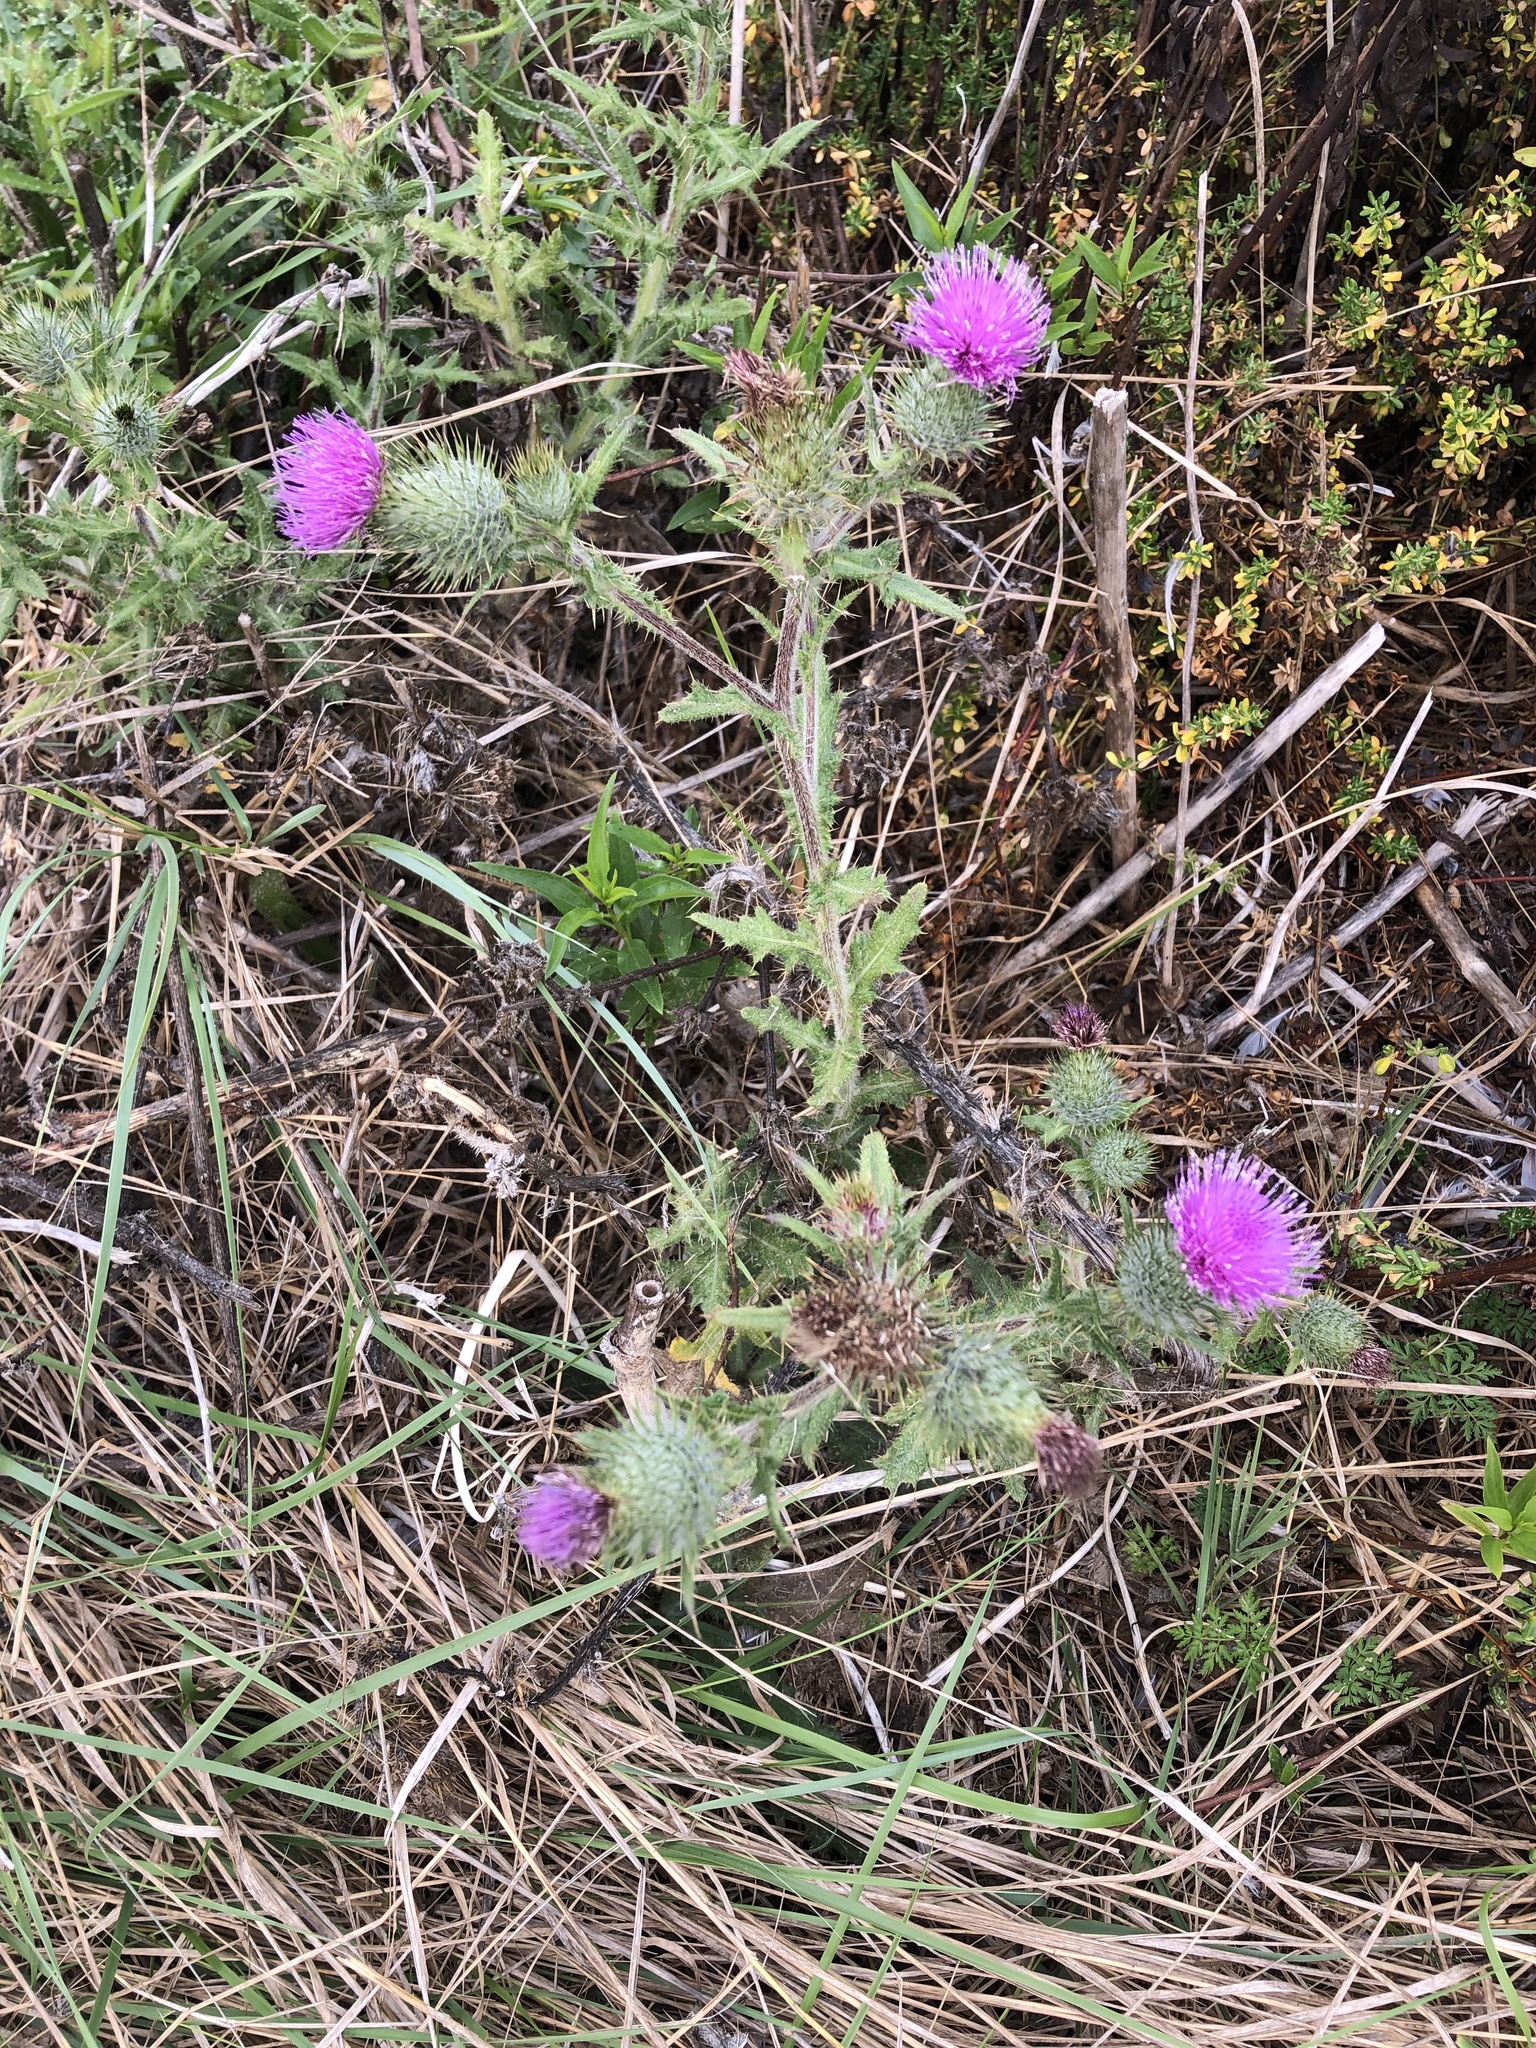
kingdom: Plantae
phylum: Tracheophyta
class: Magnoliopsida
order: Asterales
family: Asteraceae
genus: Cirsium
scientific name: Cirsium vulgare
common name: Bull thistle
